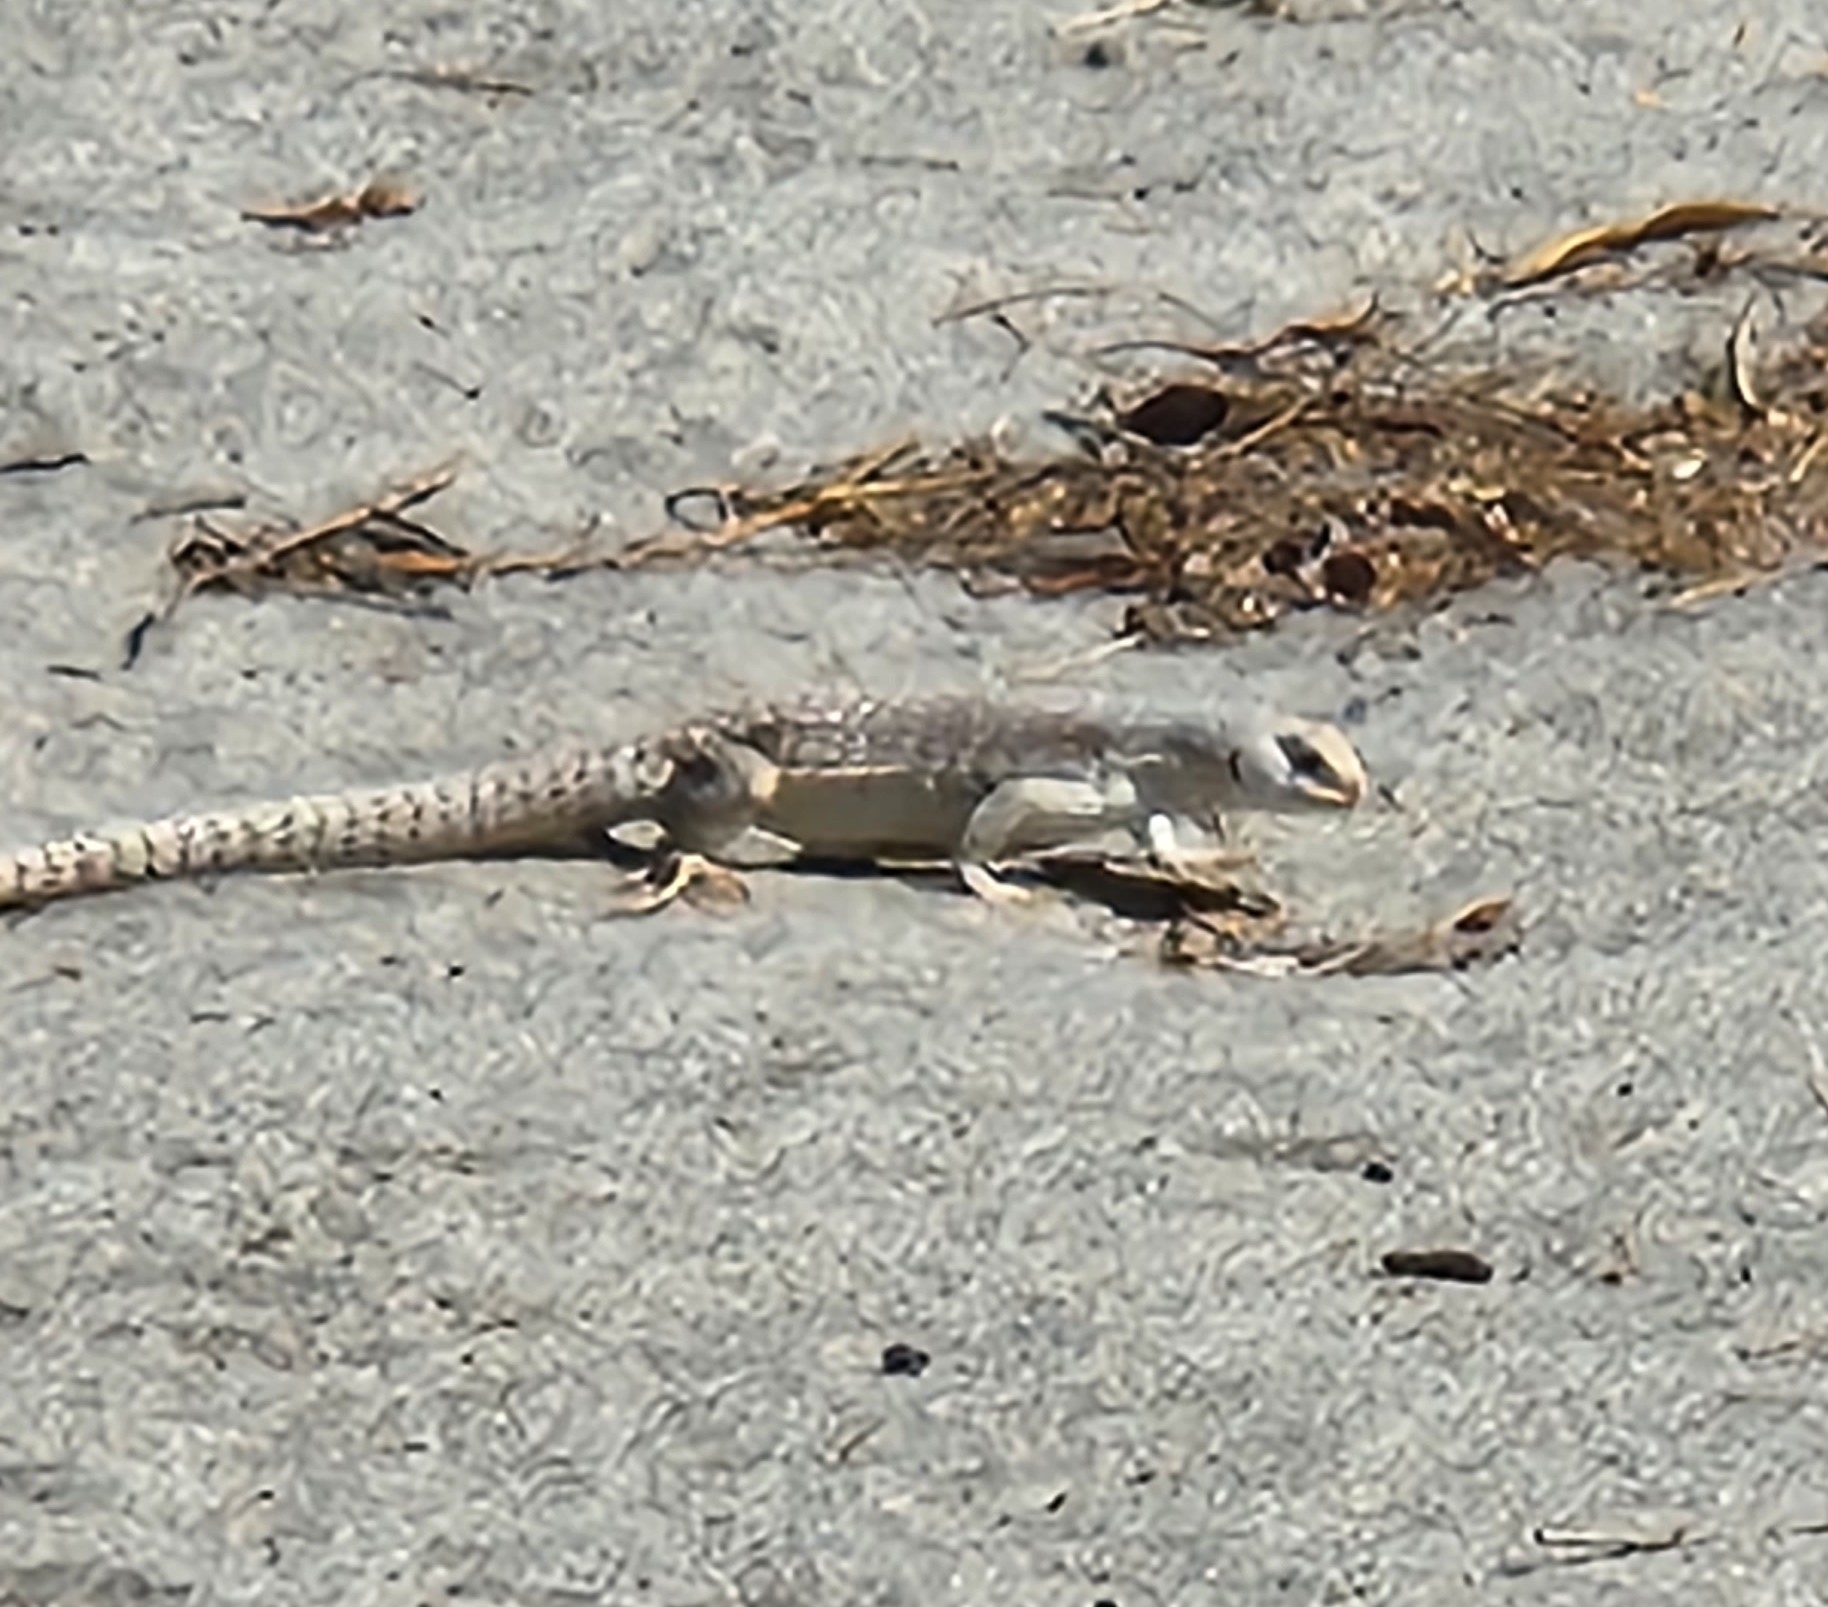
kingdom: Animalia
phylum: Chordata
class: Squamata
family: Iguanidae
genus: Dipsosaurus
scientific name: Dipsosaurus dorsalis
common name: Desert iguana
